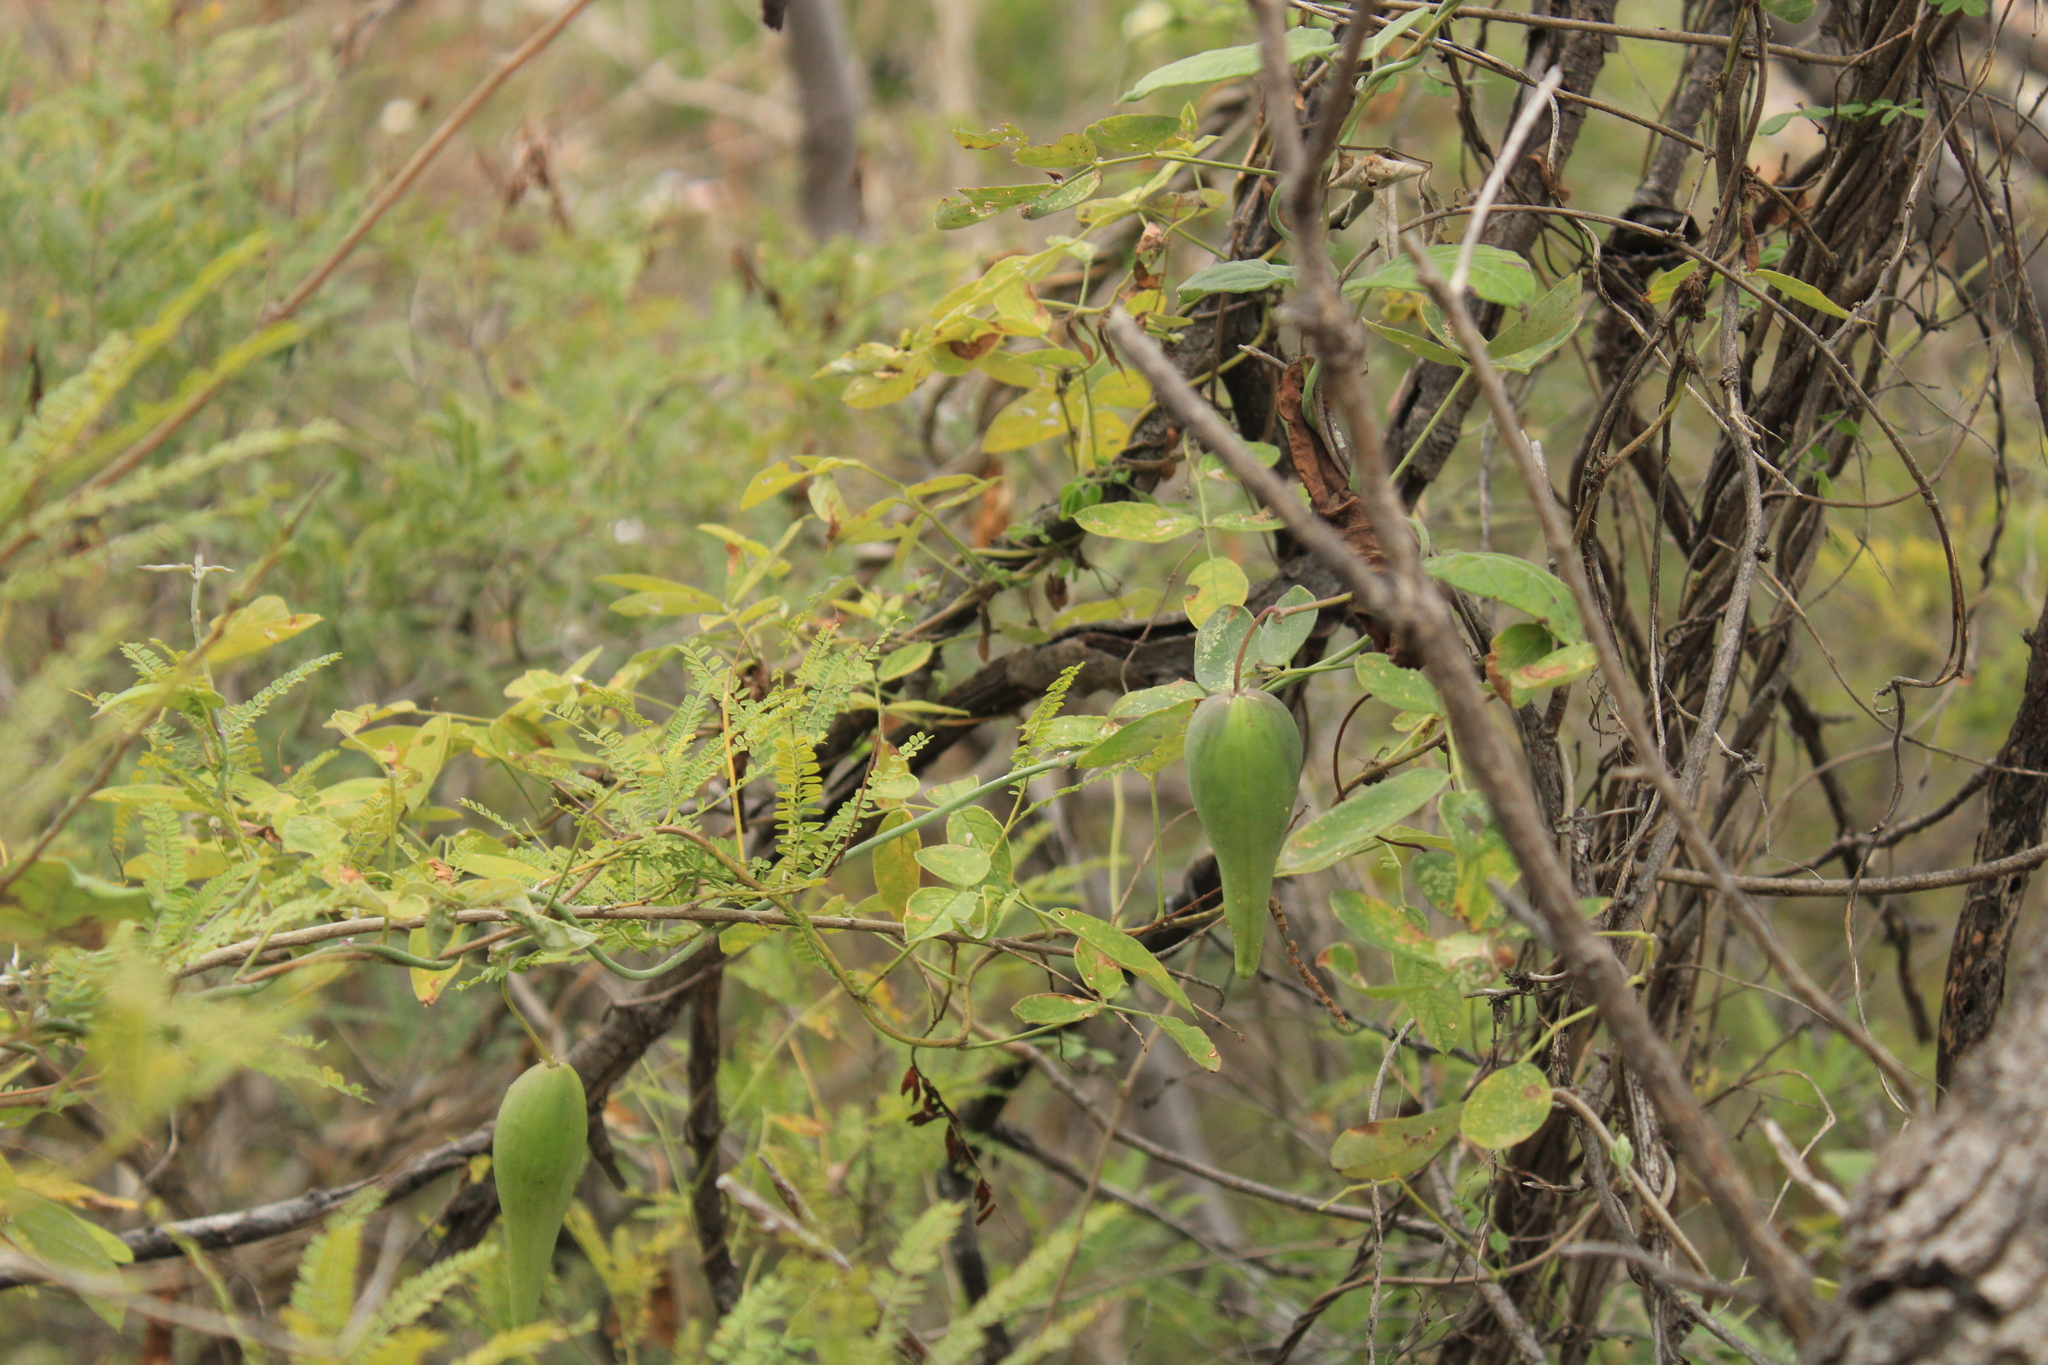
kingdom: Plantae
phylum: Tracheophyta
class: Magnoliopsida
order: Gentianales
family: Apocynaceae
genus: Funastrum
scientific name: Funastrum pannosum
